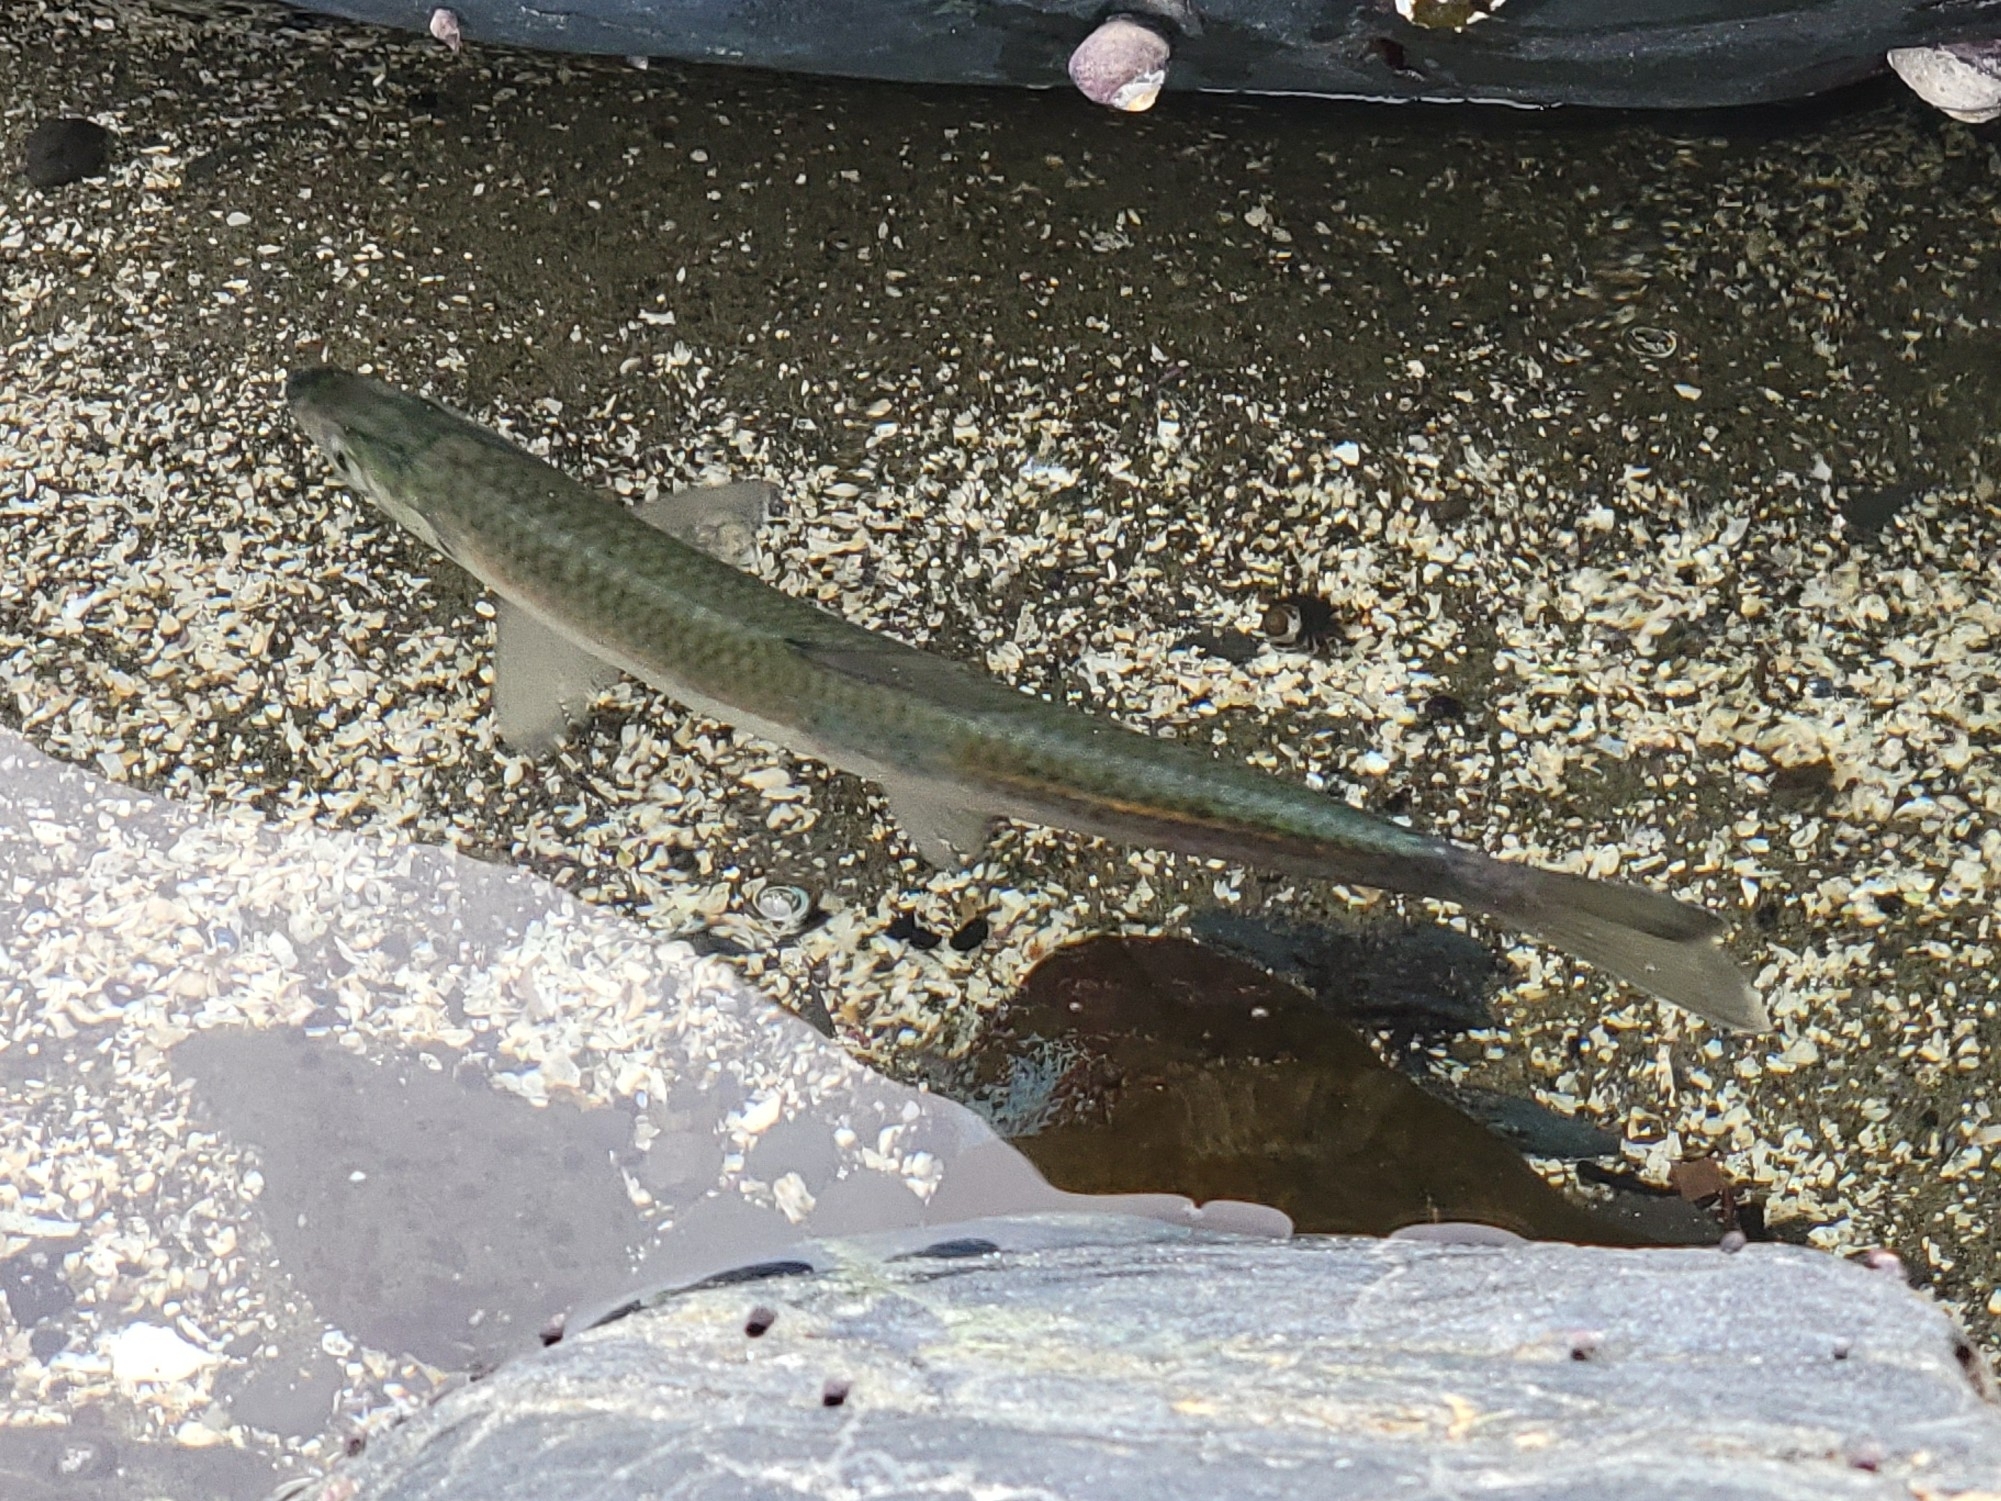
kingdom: Animalia
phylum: Chordata
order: Clupeiformes
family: Clupeidae
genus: Clupea
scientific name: Clupea pallasii
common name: Pacific herring
